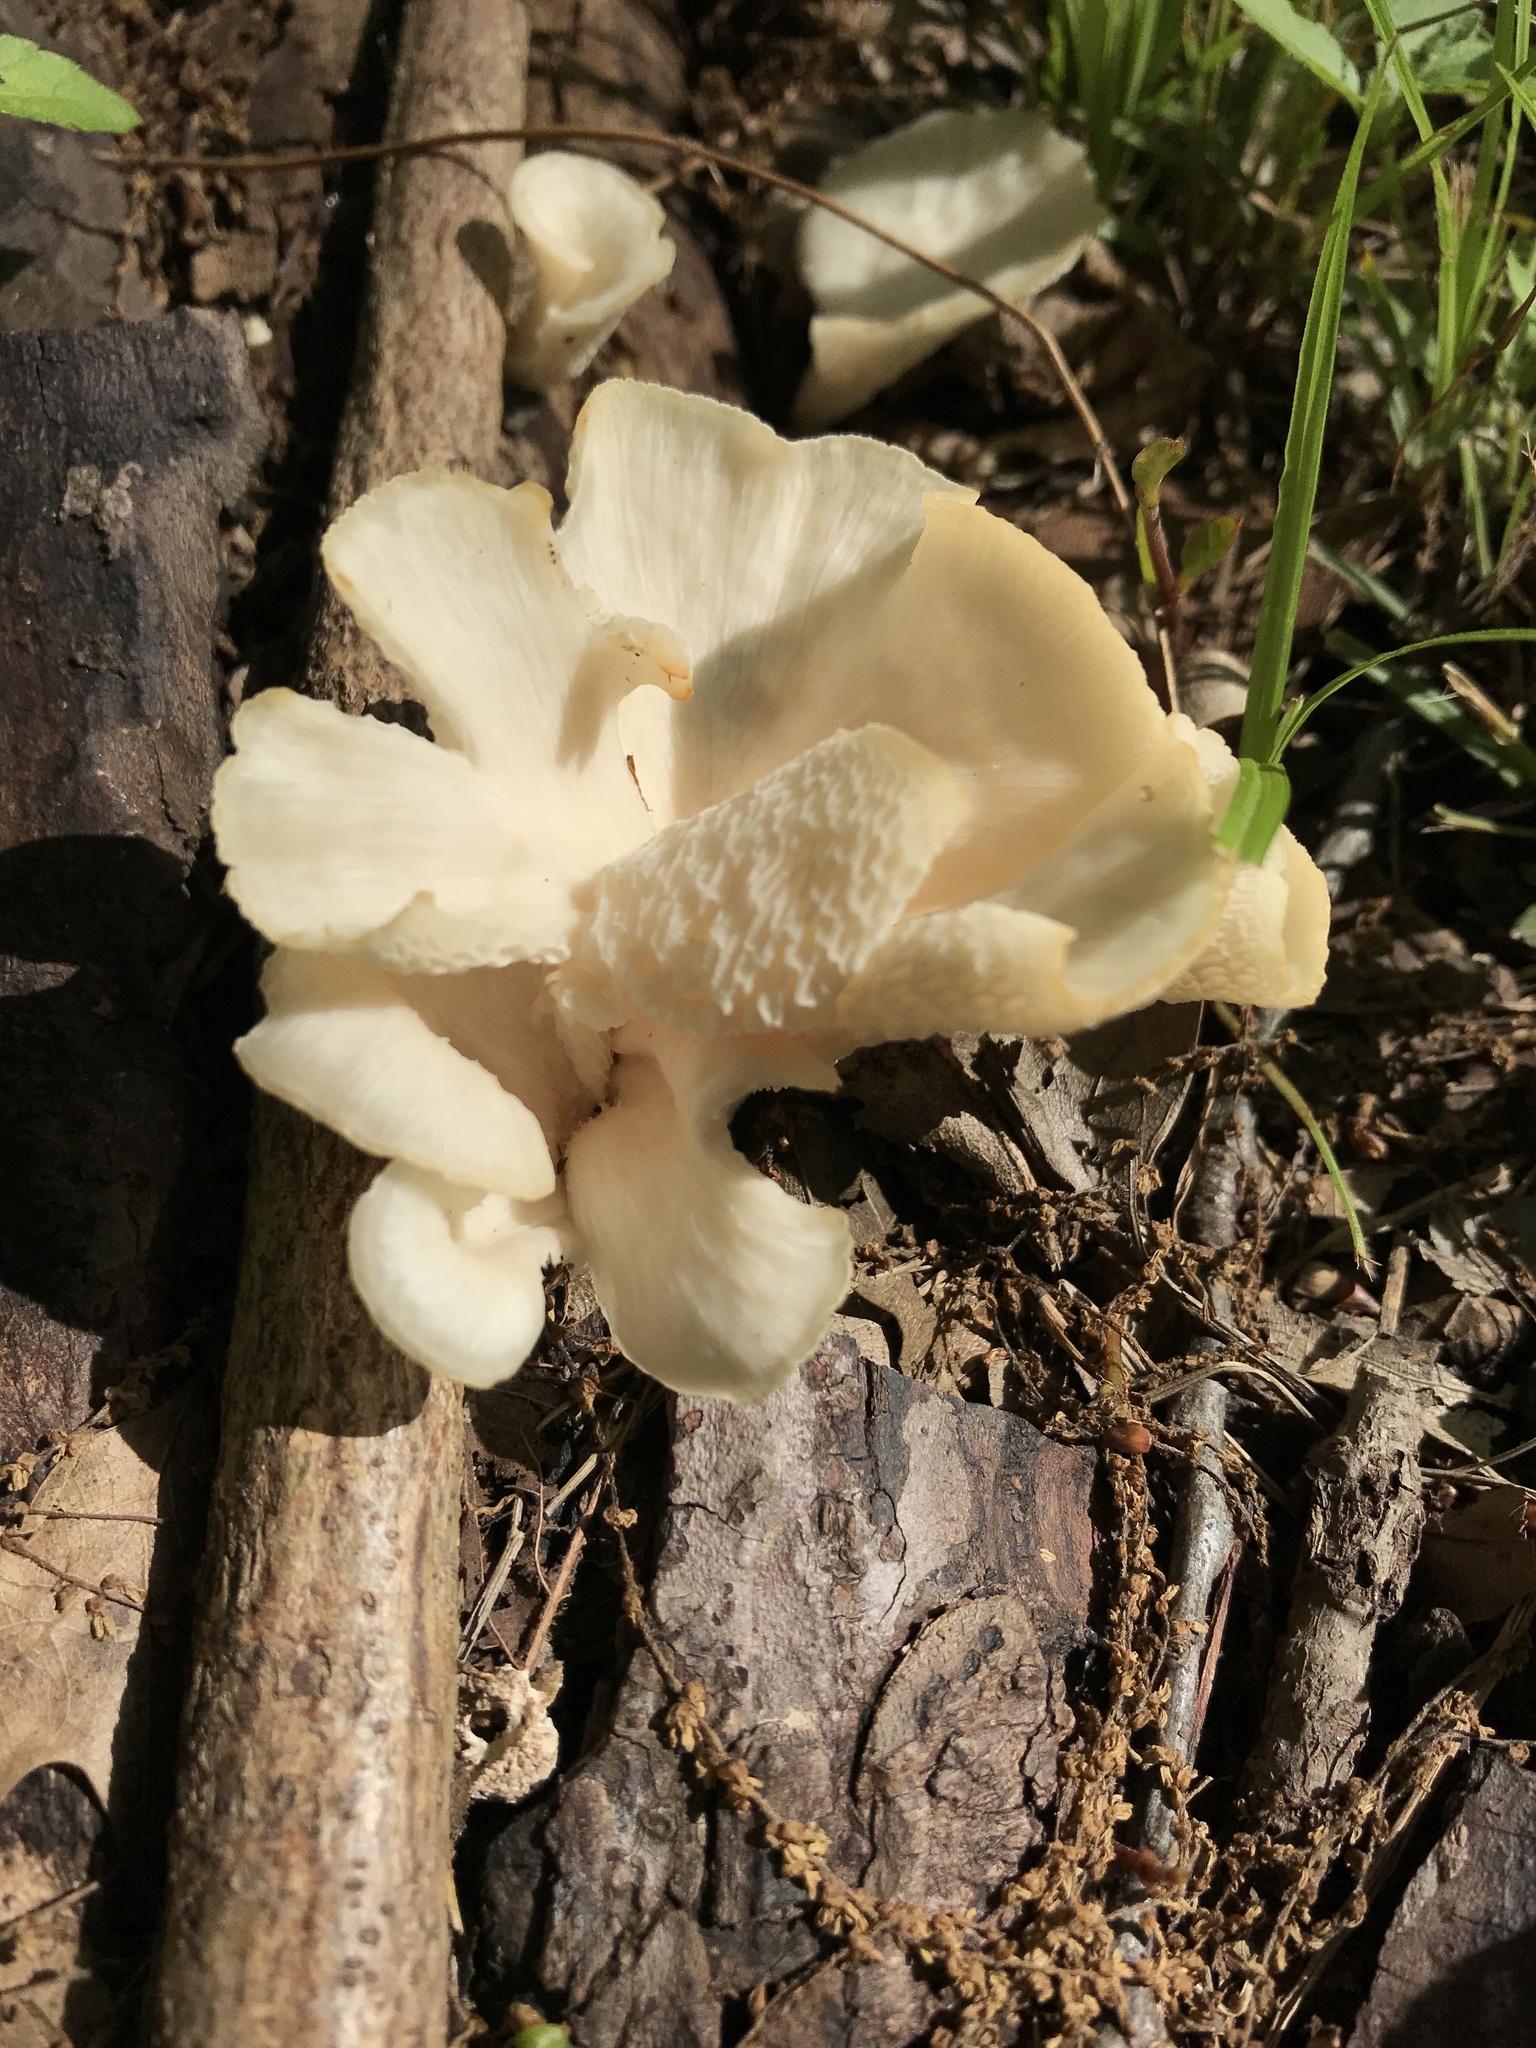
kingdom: Fungi
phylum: Basidiomycota
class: Agaricomycetes
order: Polyporales
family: Polyporaceae
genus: Favolus
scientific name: Favolus tenuiculus
